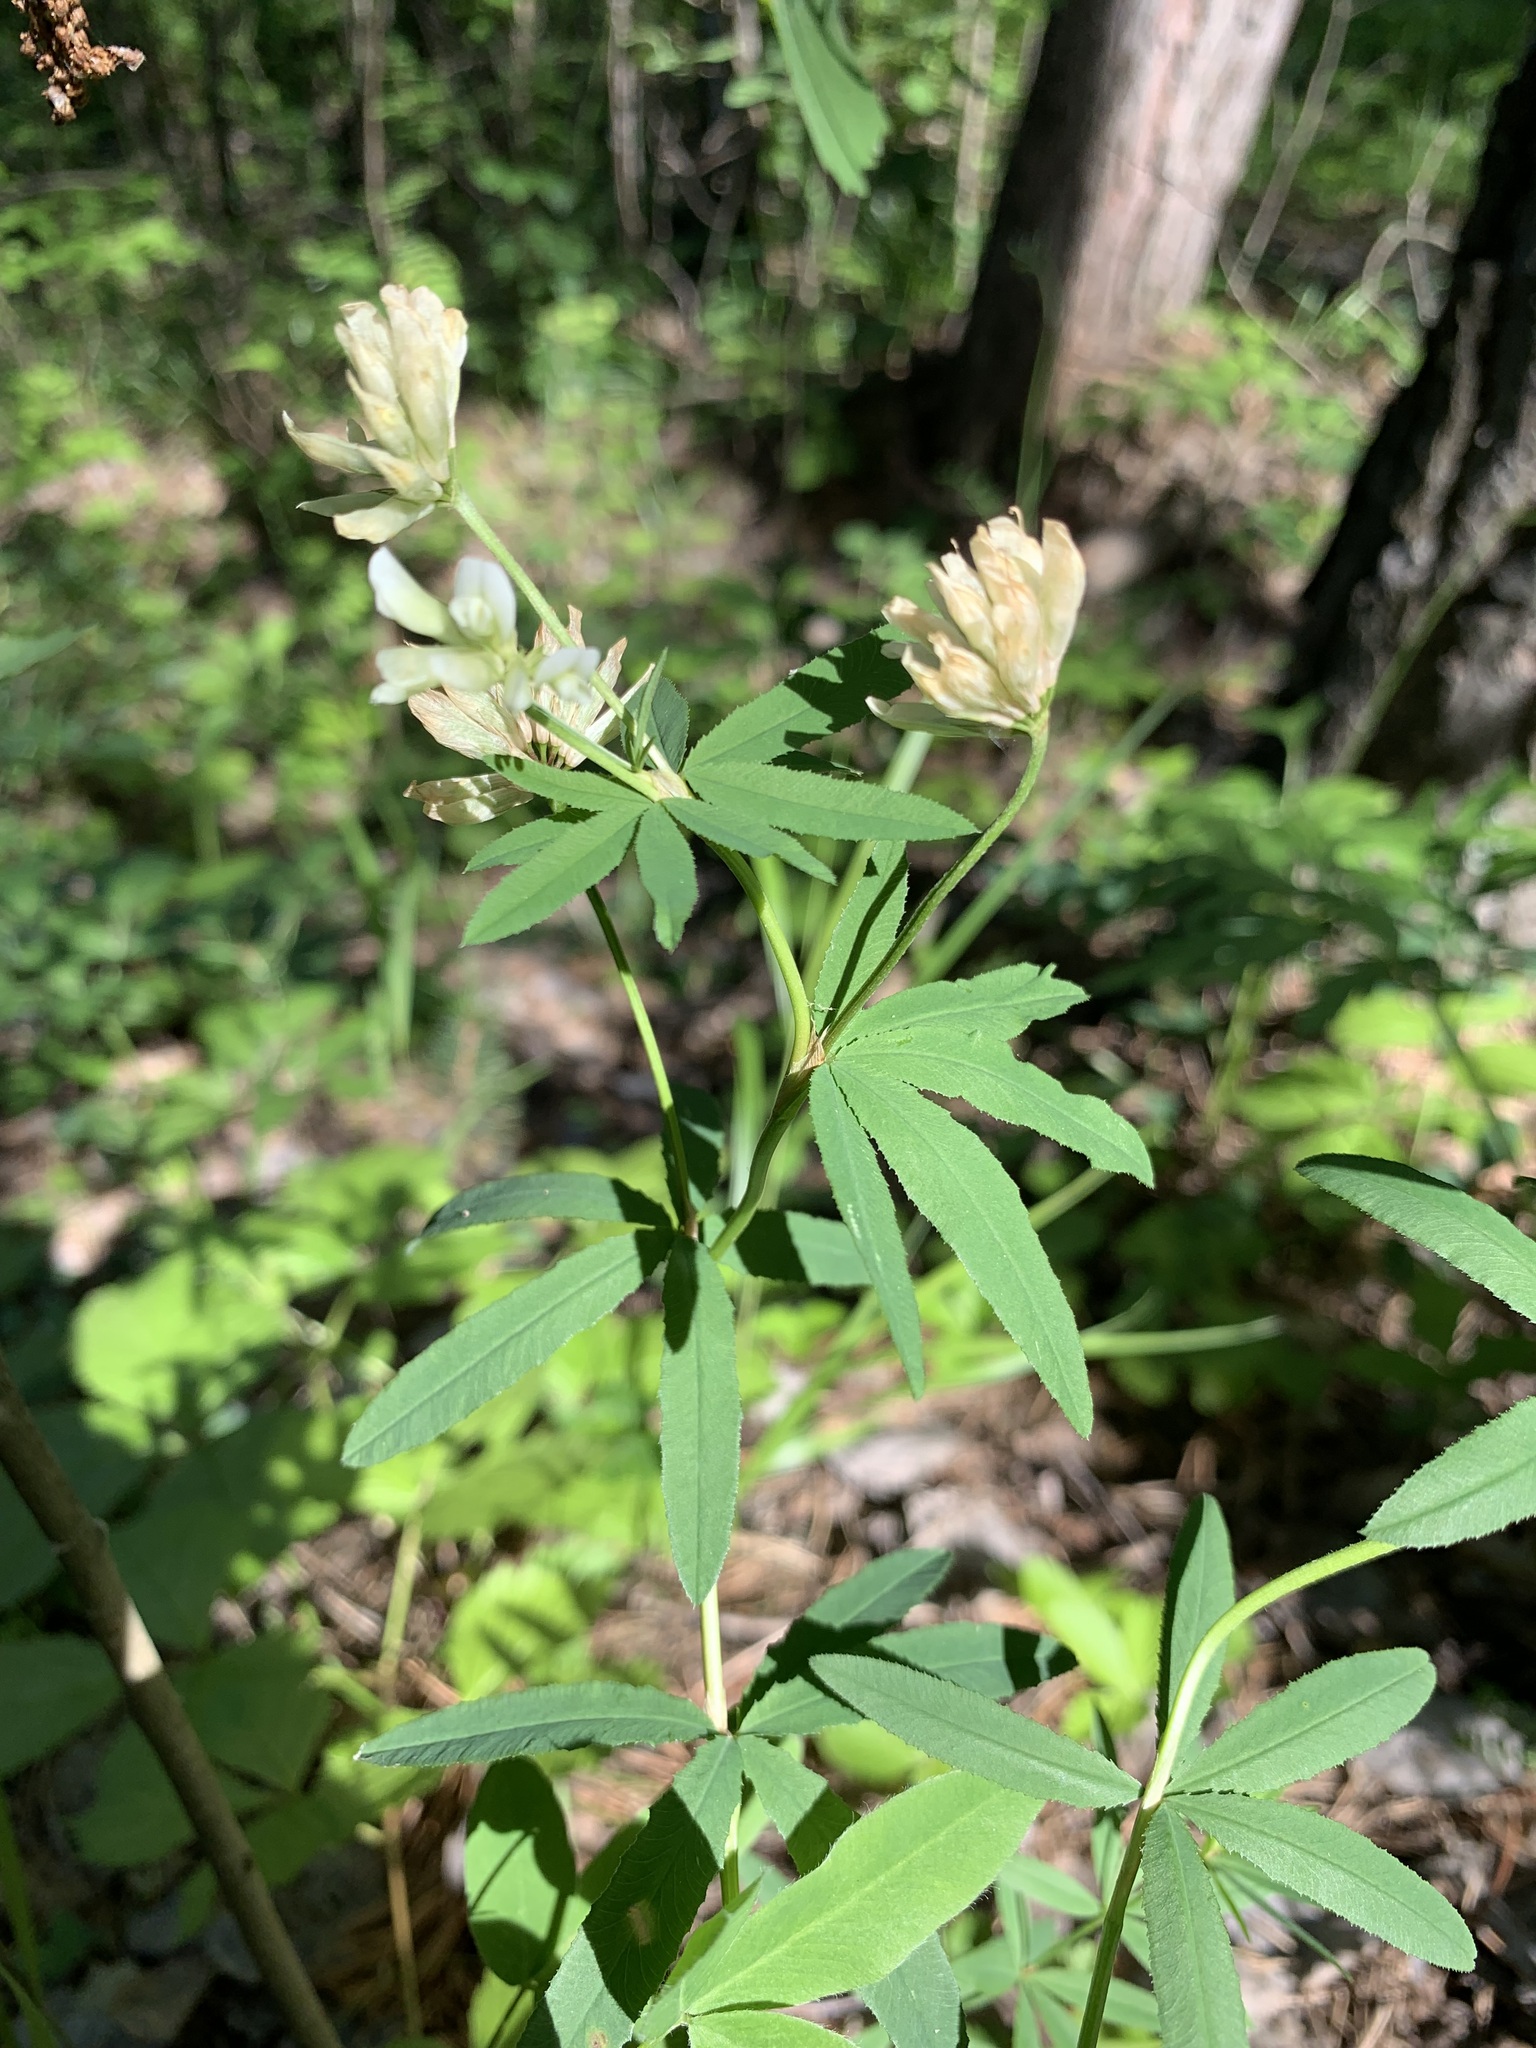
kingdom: Plantae
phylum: Tracheophyta
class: Magnoliopsida
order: Fabales
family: Fabaceae
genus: Trifolium
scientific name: Trifolium lupinaster
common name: Lupine clover
